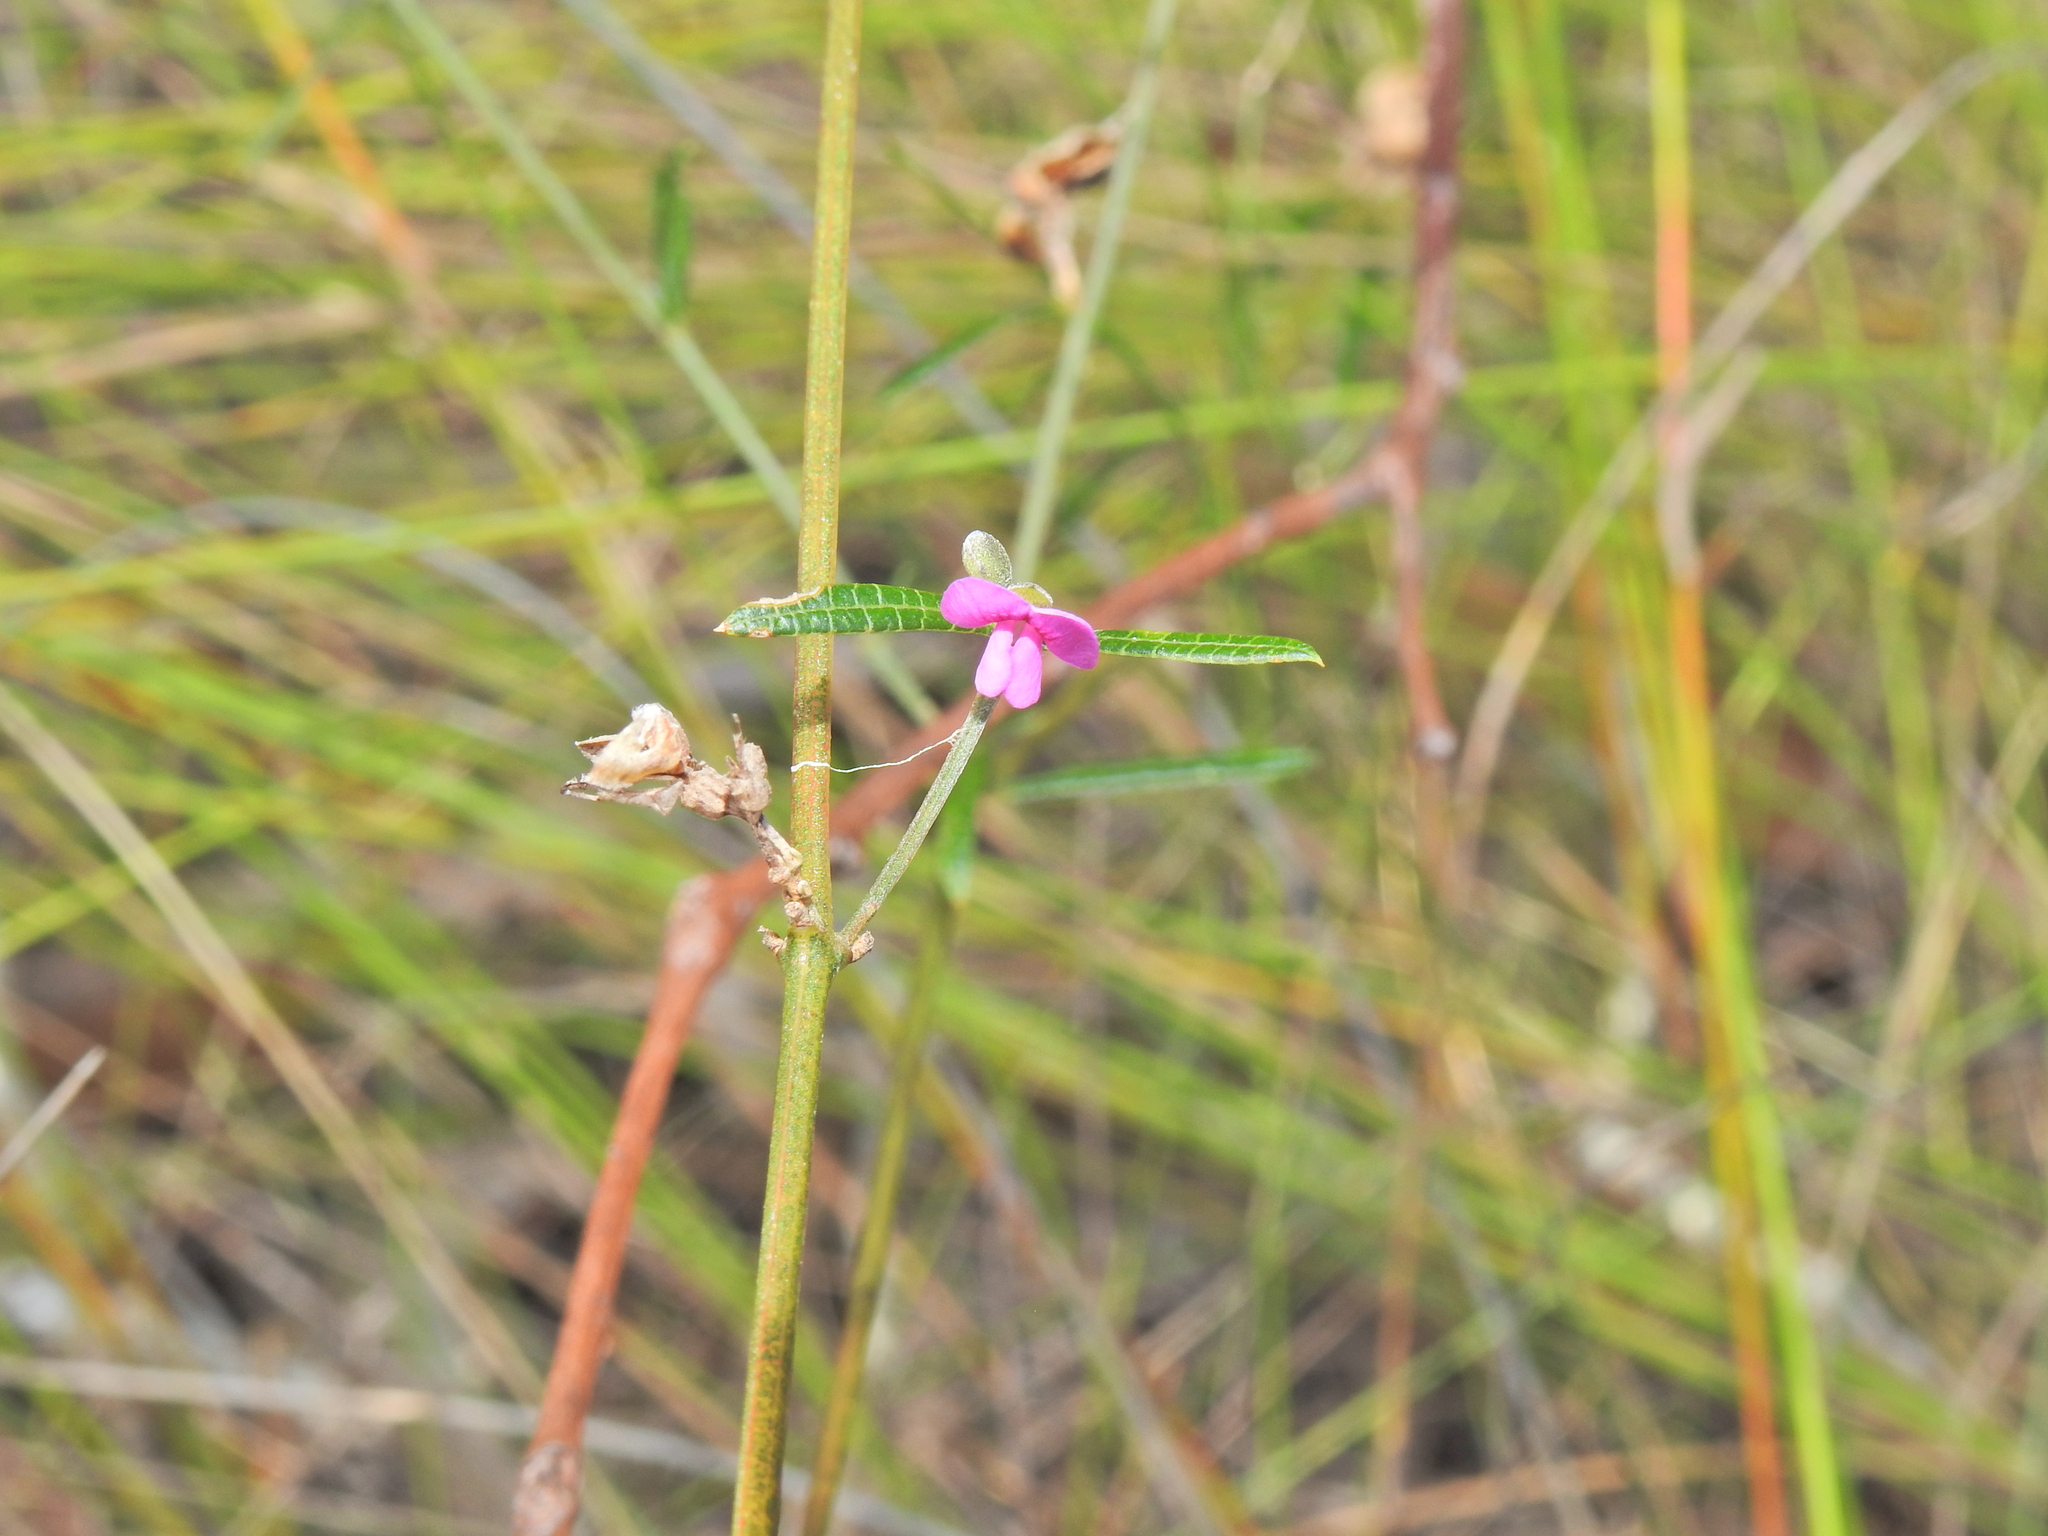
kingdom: Plantae
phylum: Tracheophyta
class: Magnoliopsida
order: Fabales
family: Fabaceae
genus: Mirbelia
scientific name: Mirbelia rubiifolia
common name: Heathy mirbelia
